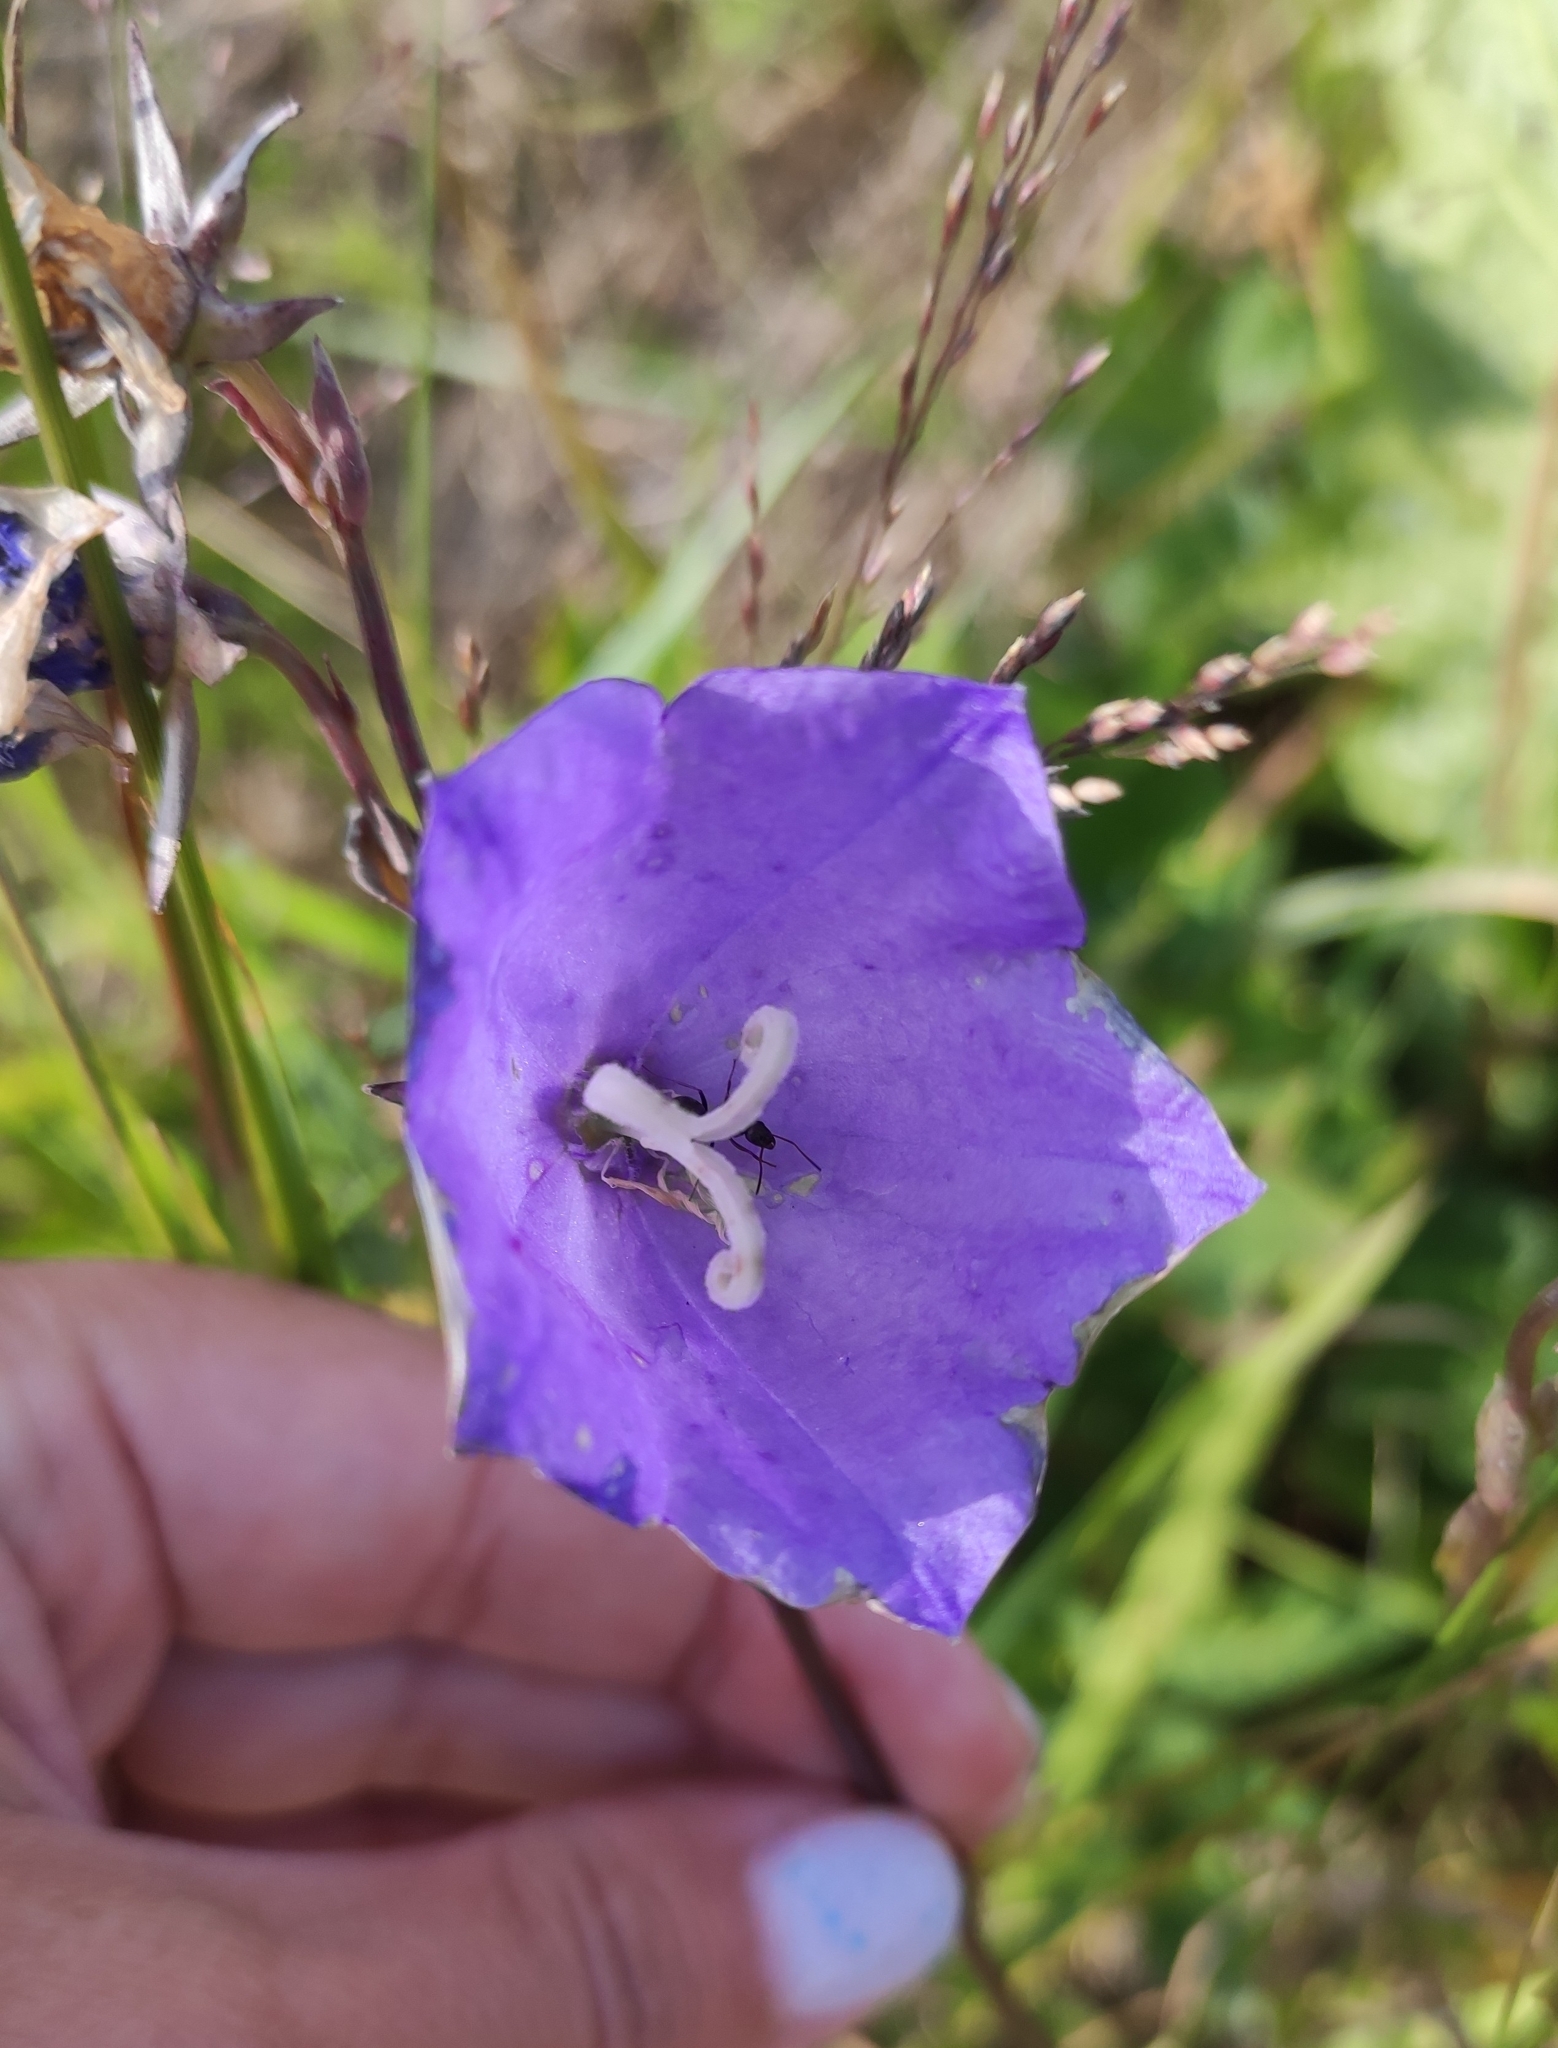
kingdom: Plantae
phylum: Tracheophyta
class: Magnoliopsida
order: Asterales
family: Campanulaceae
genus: Campanula
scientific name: Campanula persicifolia
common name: Peach-leaved bellflower
